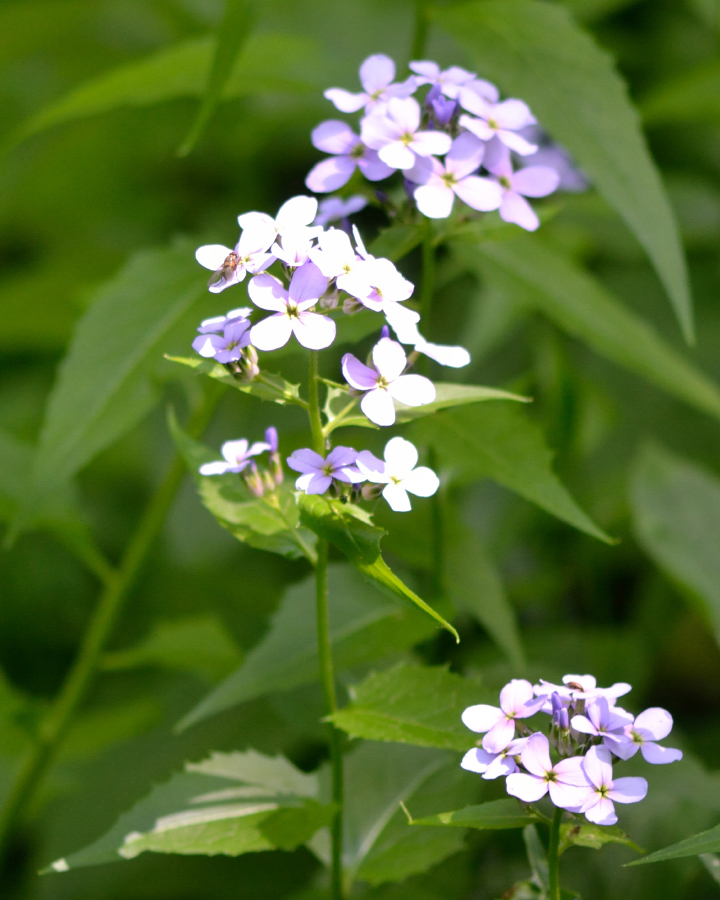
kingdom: Plantae
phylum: Tracheophyta
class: Magnoliopsida
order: Brassicales
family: Brassicaceae
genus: Lunaria
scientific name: Lunaria rediviva
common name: Perennial honesty
